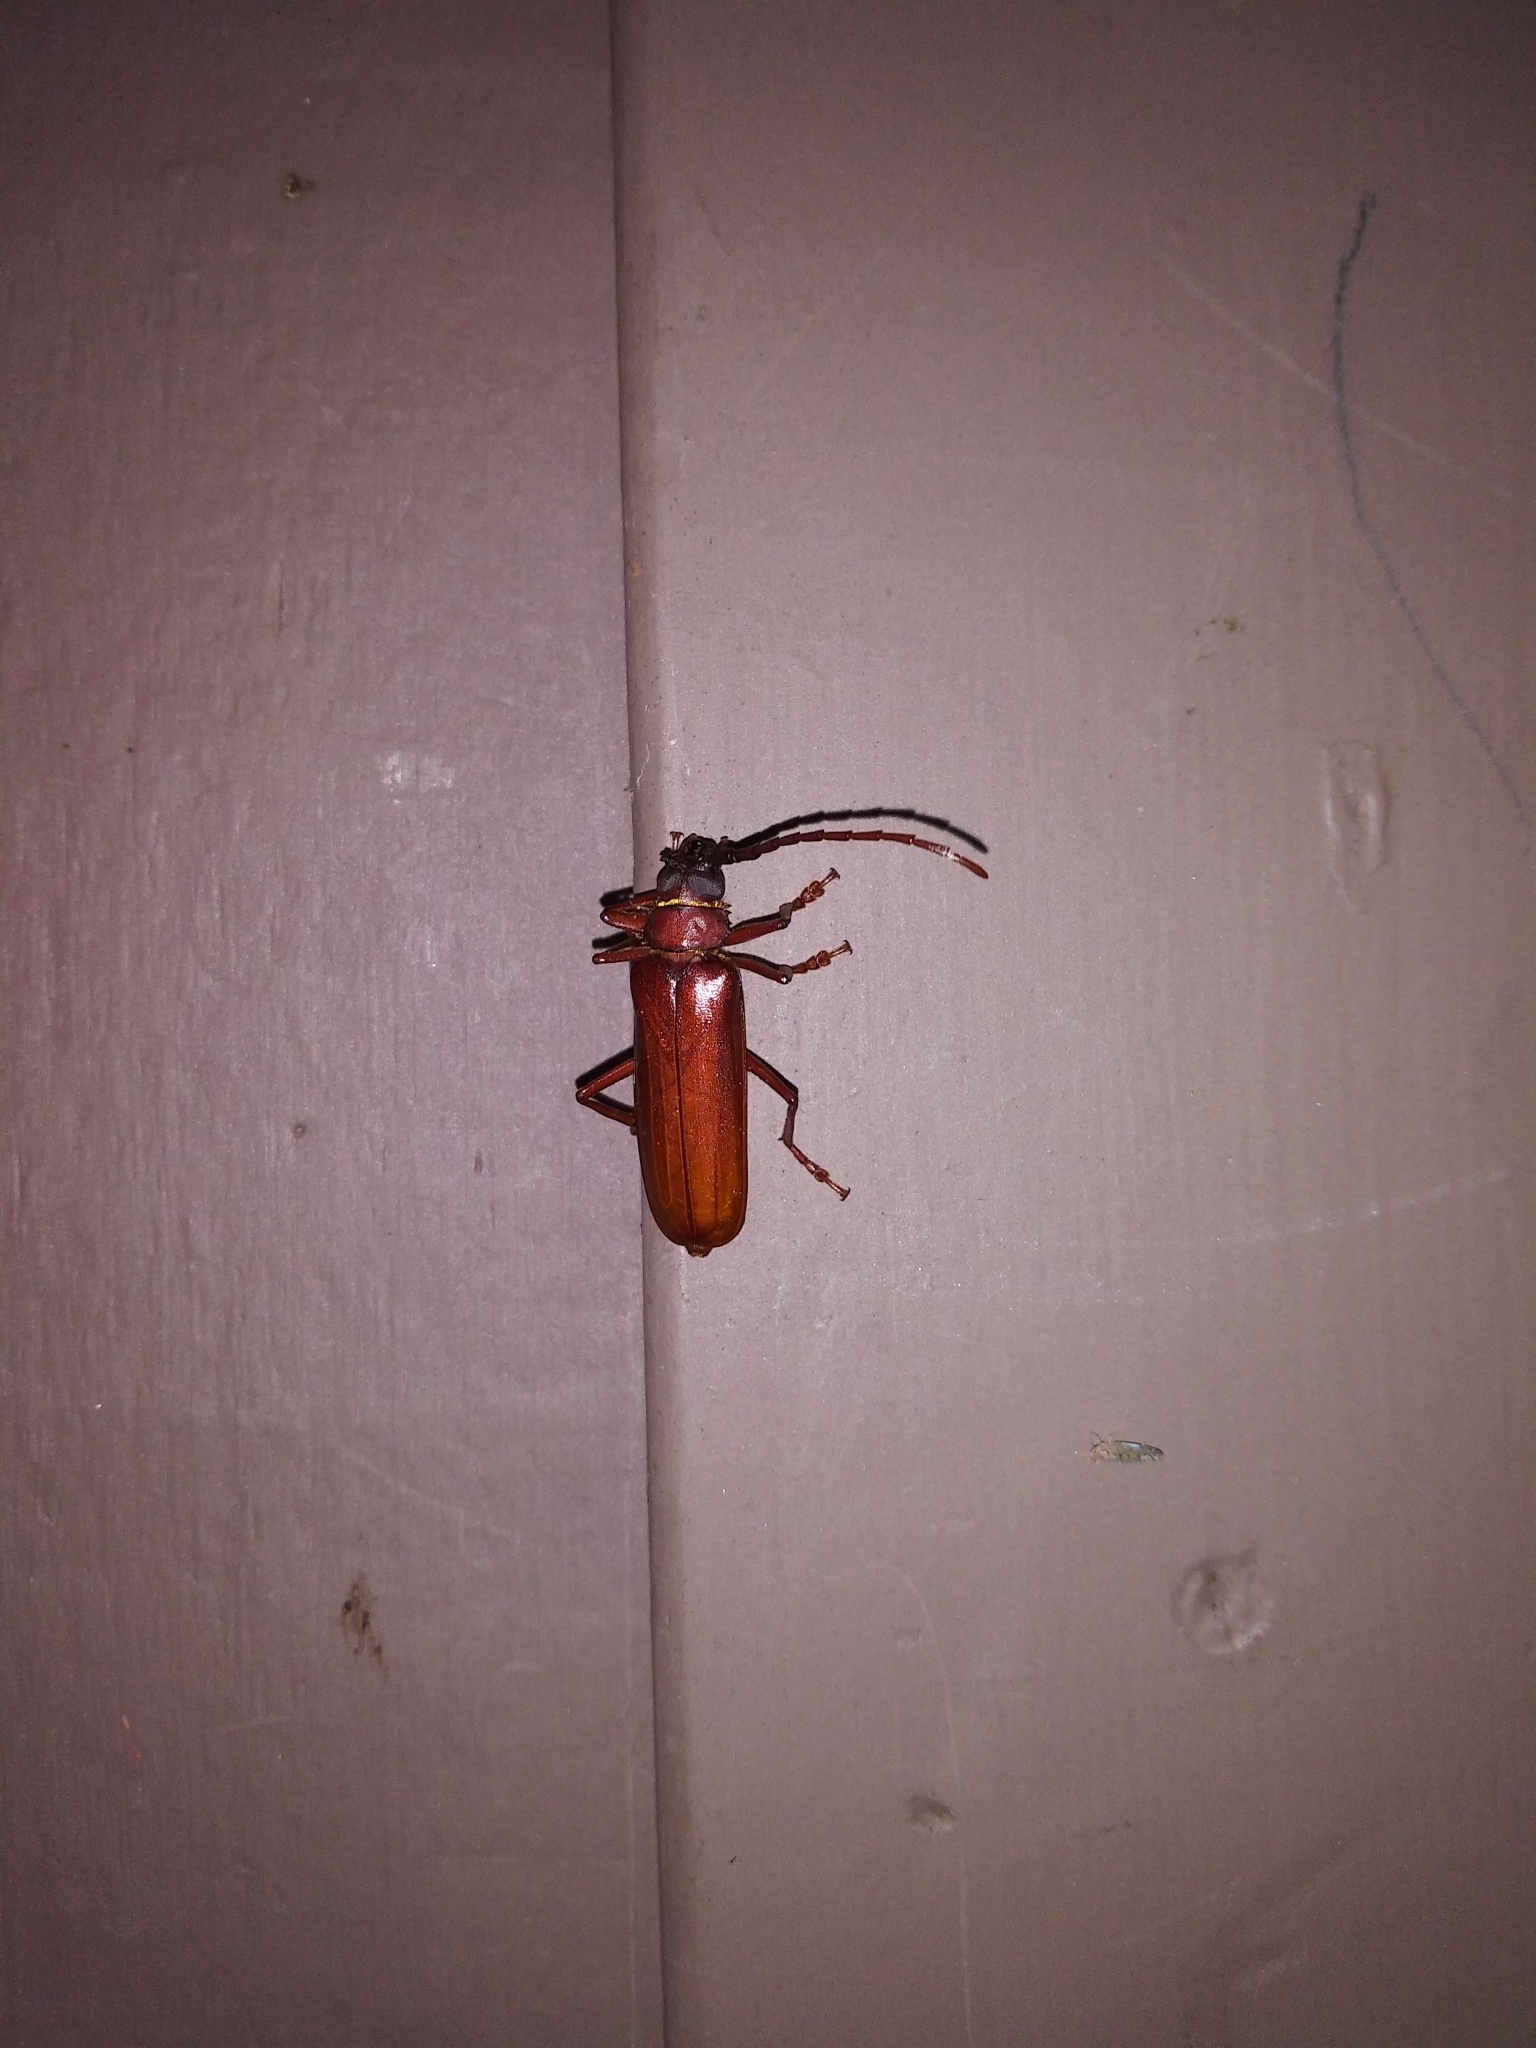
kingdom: Animalia
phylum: Arthropoda
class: Insecta
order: Coleoptera
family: Cerambycidae
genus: Orthosoma
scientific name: Orthosoma brunneum
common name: Brown prionid beetle
